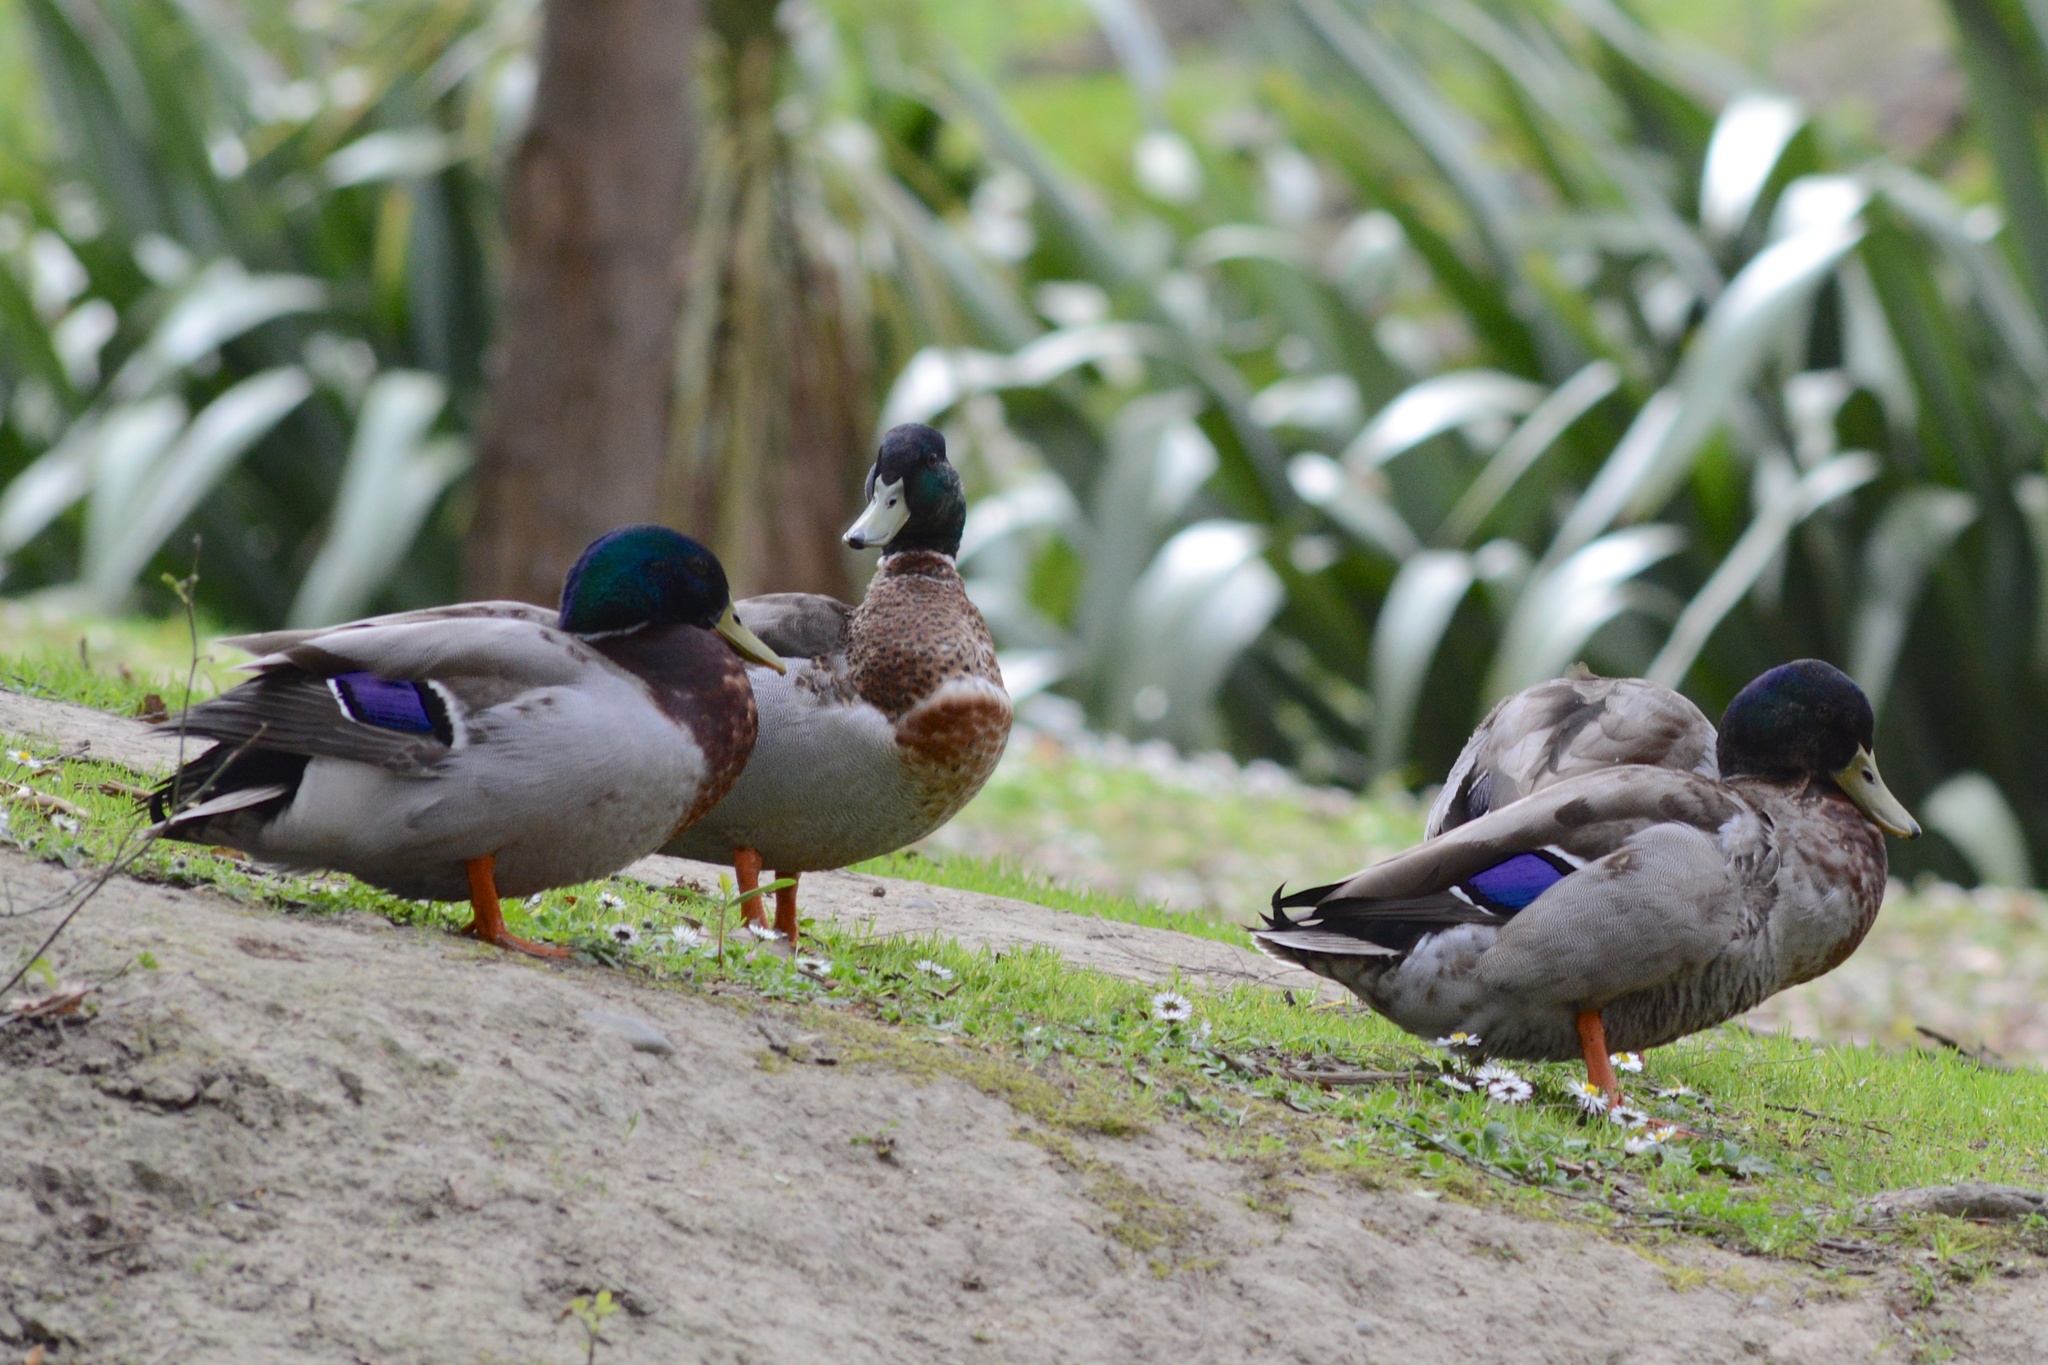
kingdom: Animalia
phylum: Chordata
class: Aves
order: Anseriformes
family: Anatidae
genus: Anas
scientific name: Anas platyrhynchos
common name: Mallard
